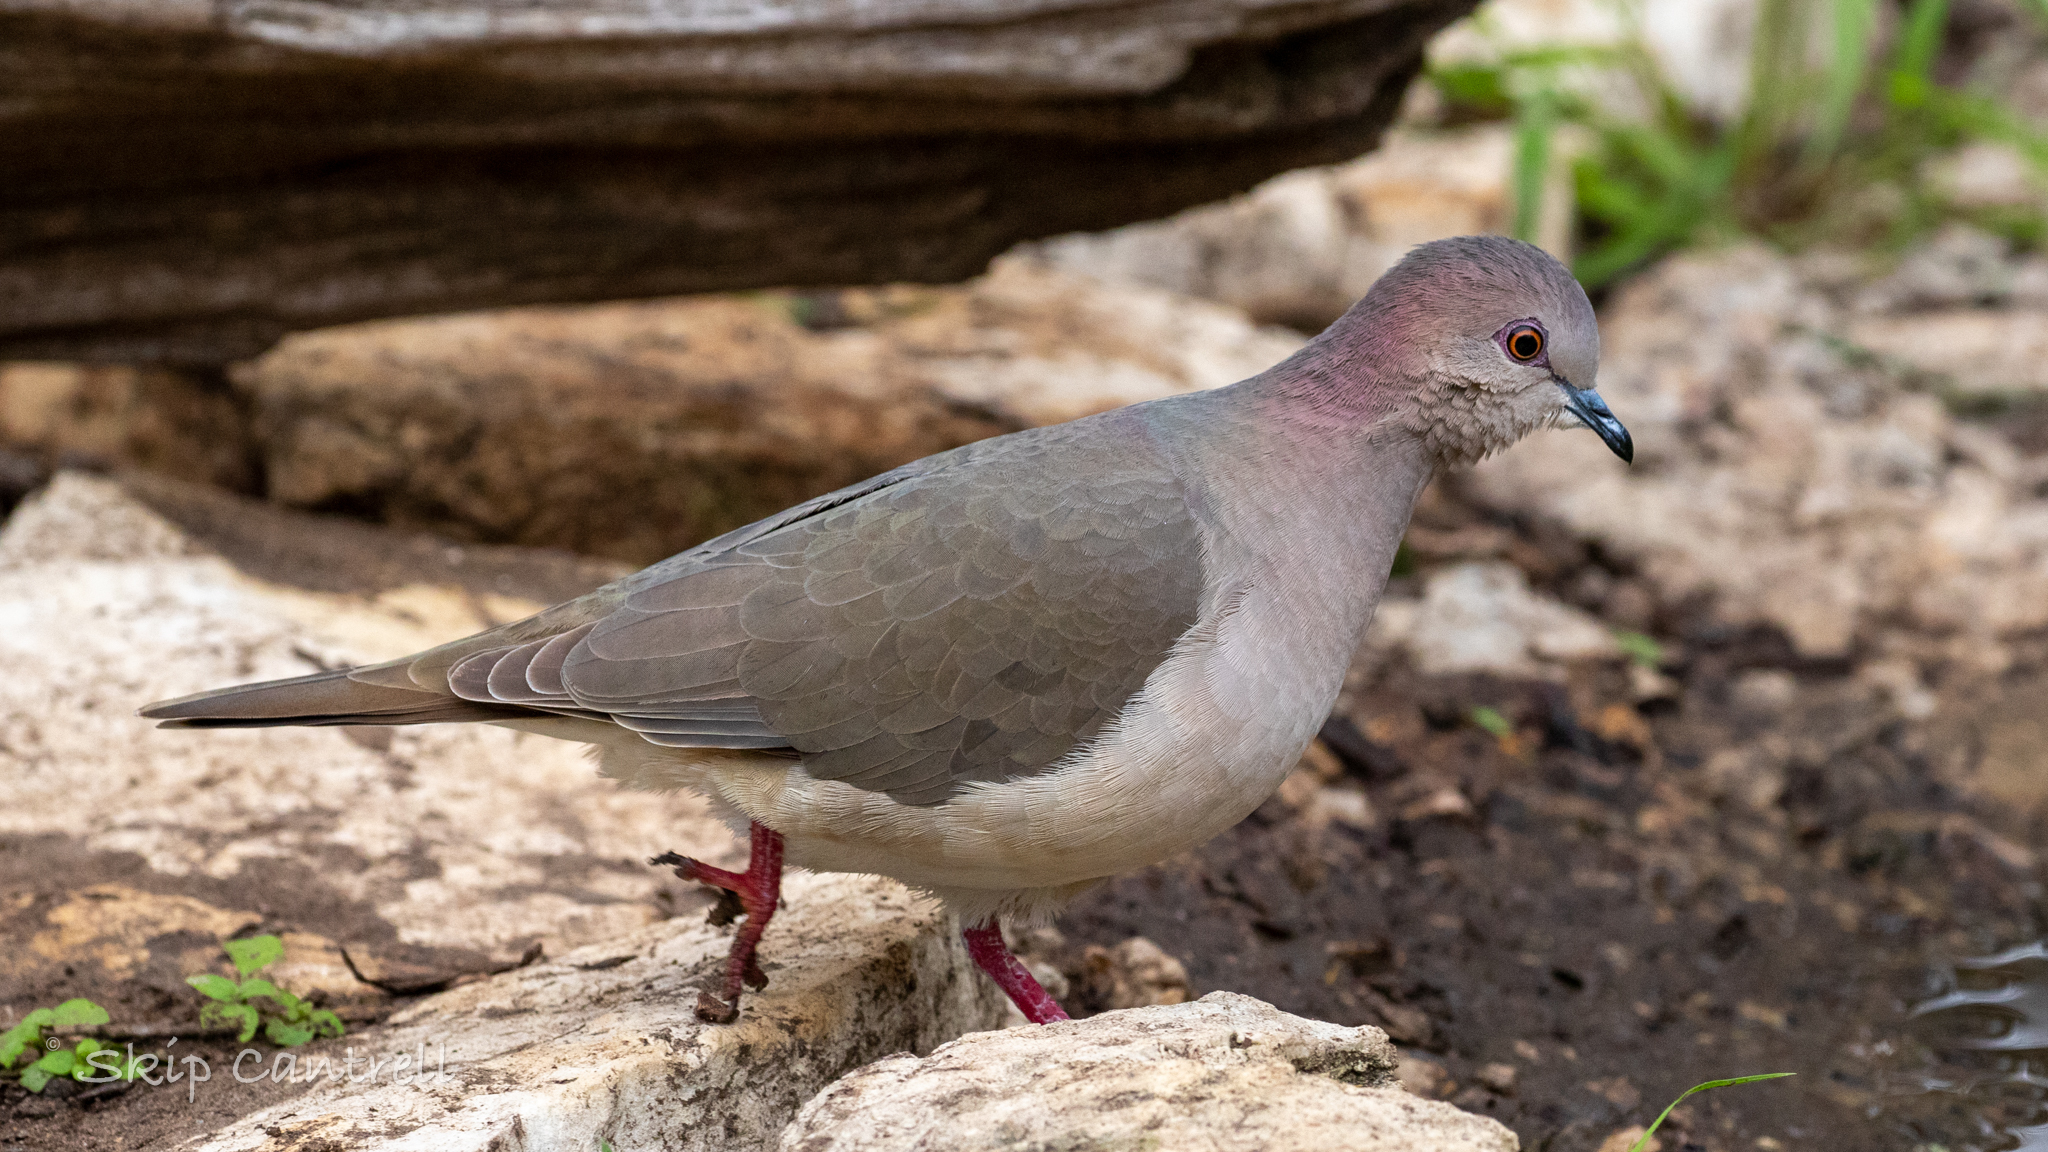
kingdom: Animalia
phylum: Chordata
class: Aves
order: Columbiformes
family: Columbidae
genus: Leptotila
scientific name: Leptotila verreauxi
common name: White-tipped dove
